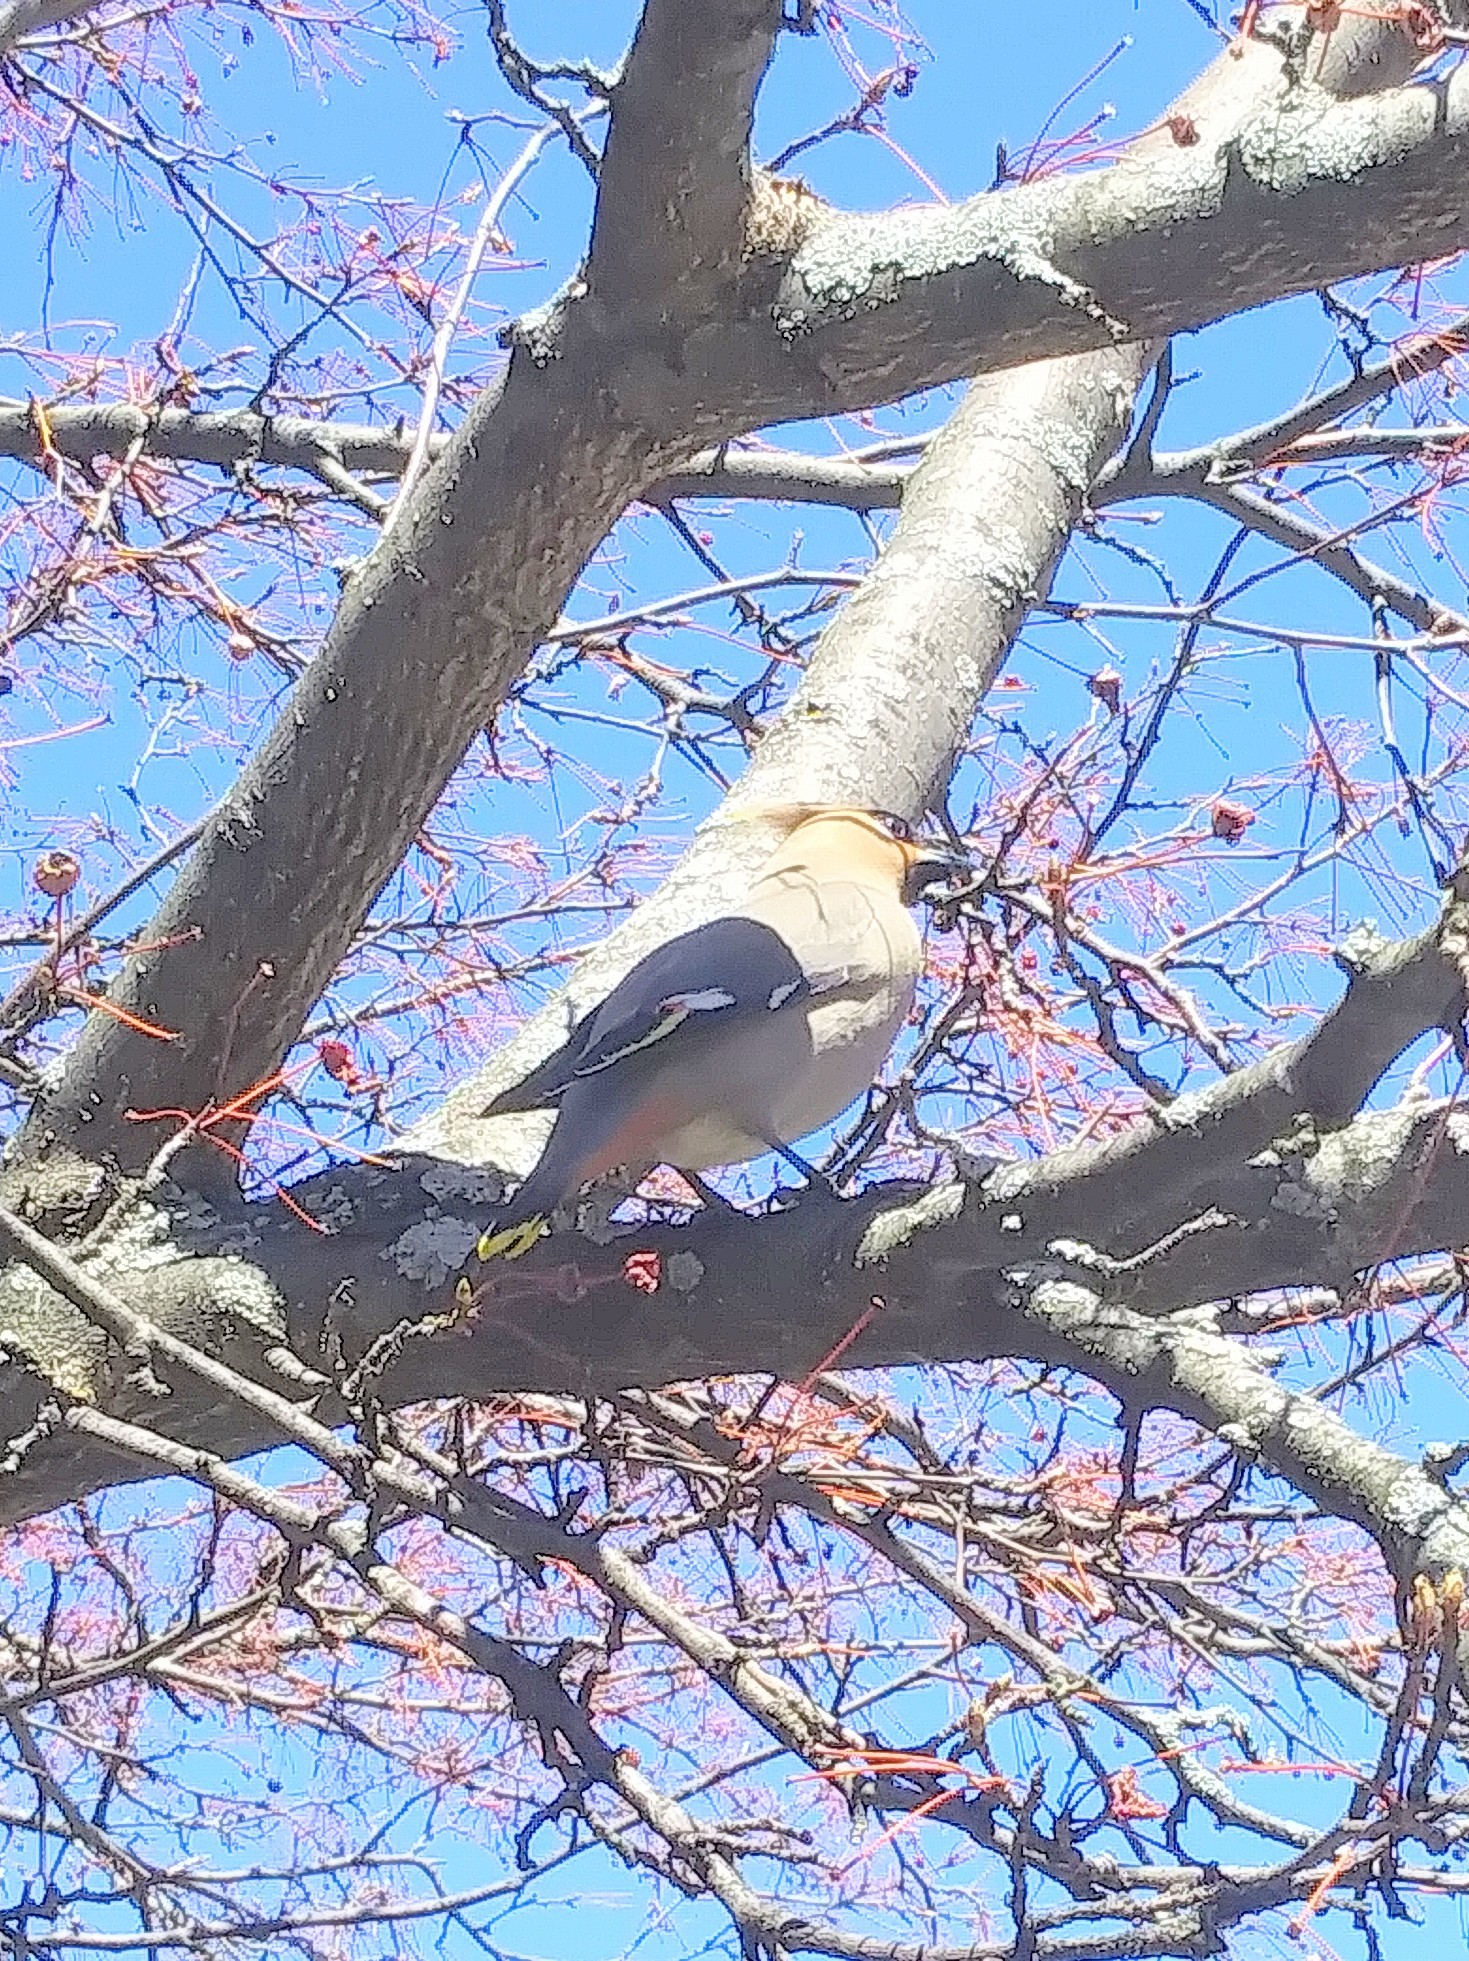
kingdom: Animalia
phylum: Chordata
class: Aves
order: Passeriformes
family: Bombycillidae
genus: Bombycilla
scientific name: Bombycilla garrulus
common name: Bohemian waxwing
